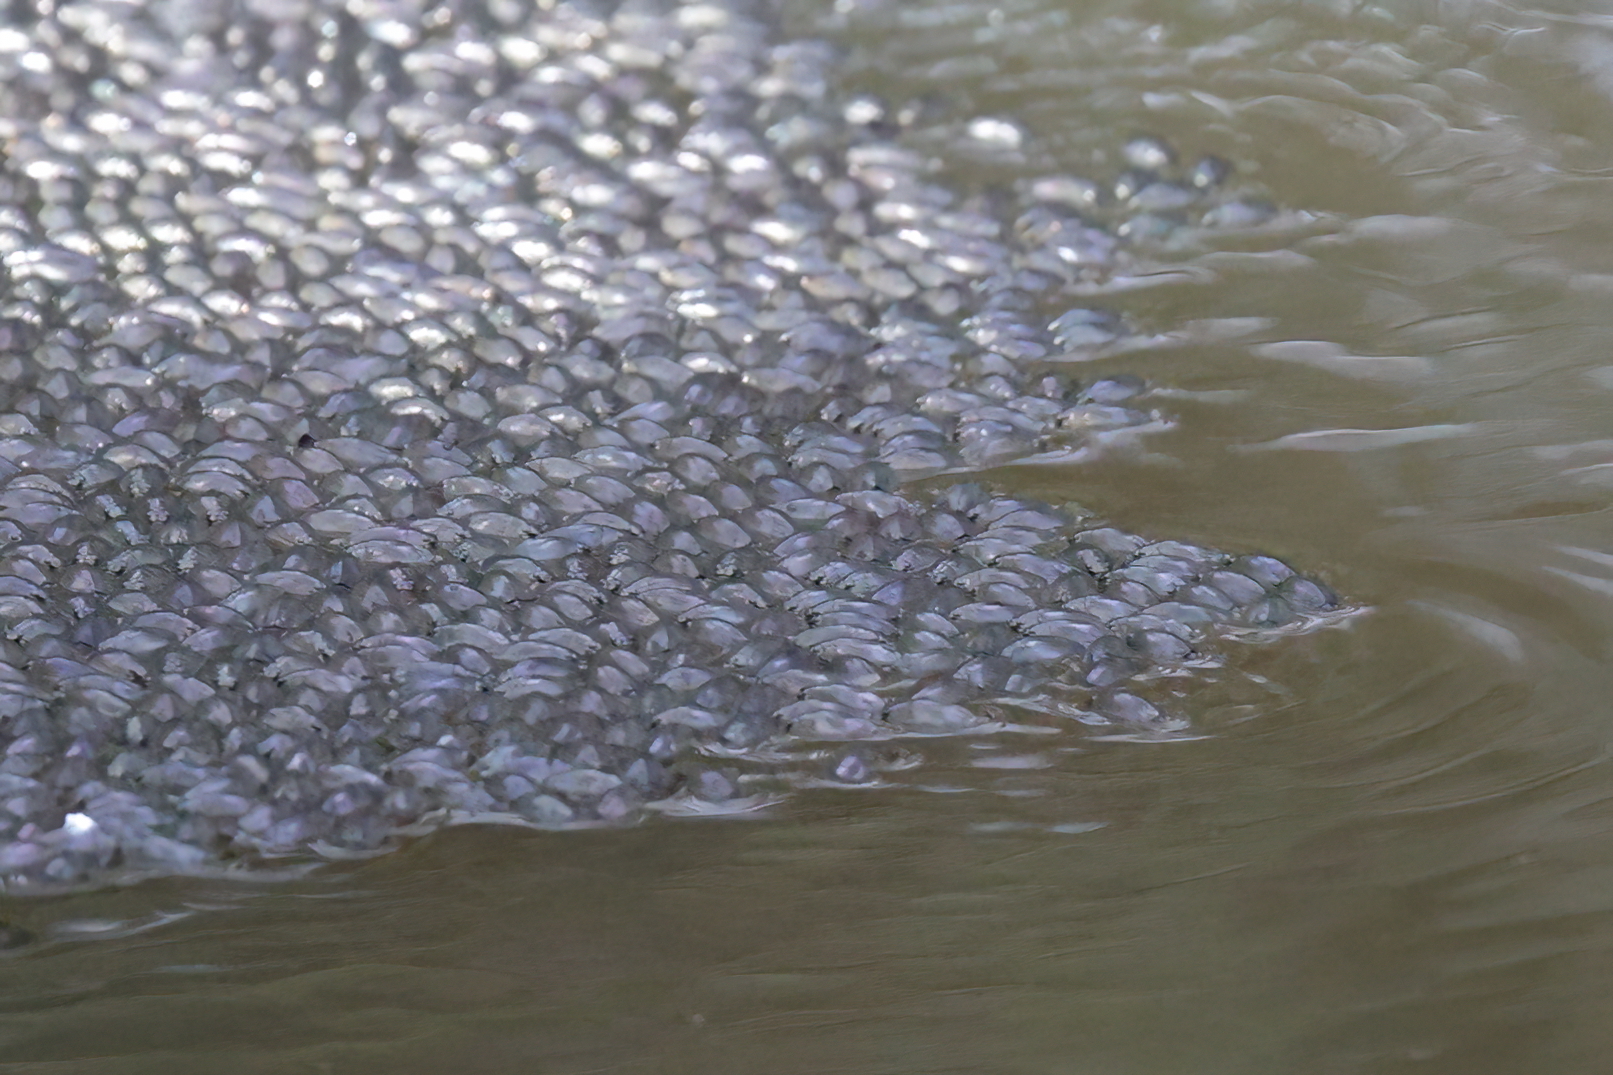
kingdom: Animalia
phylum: Arthropoda
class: Insecta
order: Coleoptera
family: Gyrinidae
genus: Dineutus
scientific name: Dineutus
